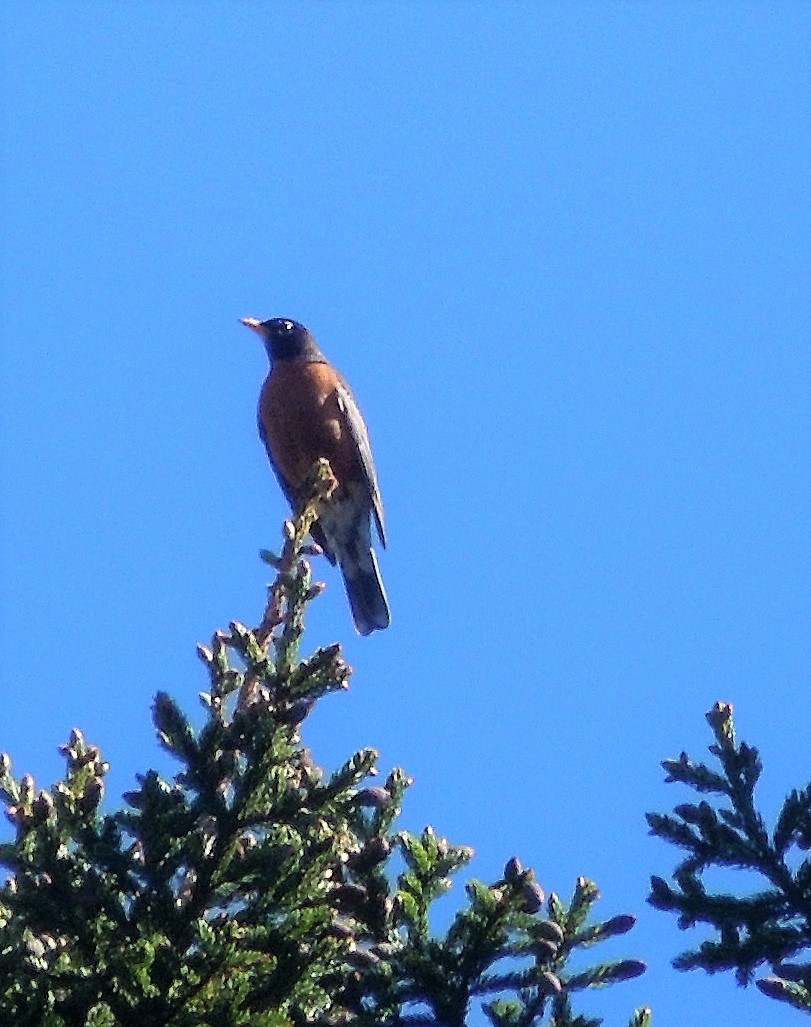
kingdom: Animalia
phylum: Chordata
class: Aves
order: Passeriformes
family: Turdidae
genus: Turdus
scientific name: Turdus migratorius
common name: American robin
